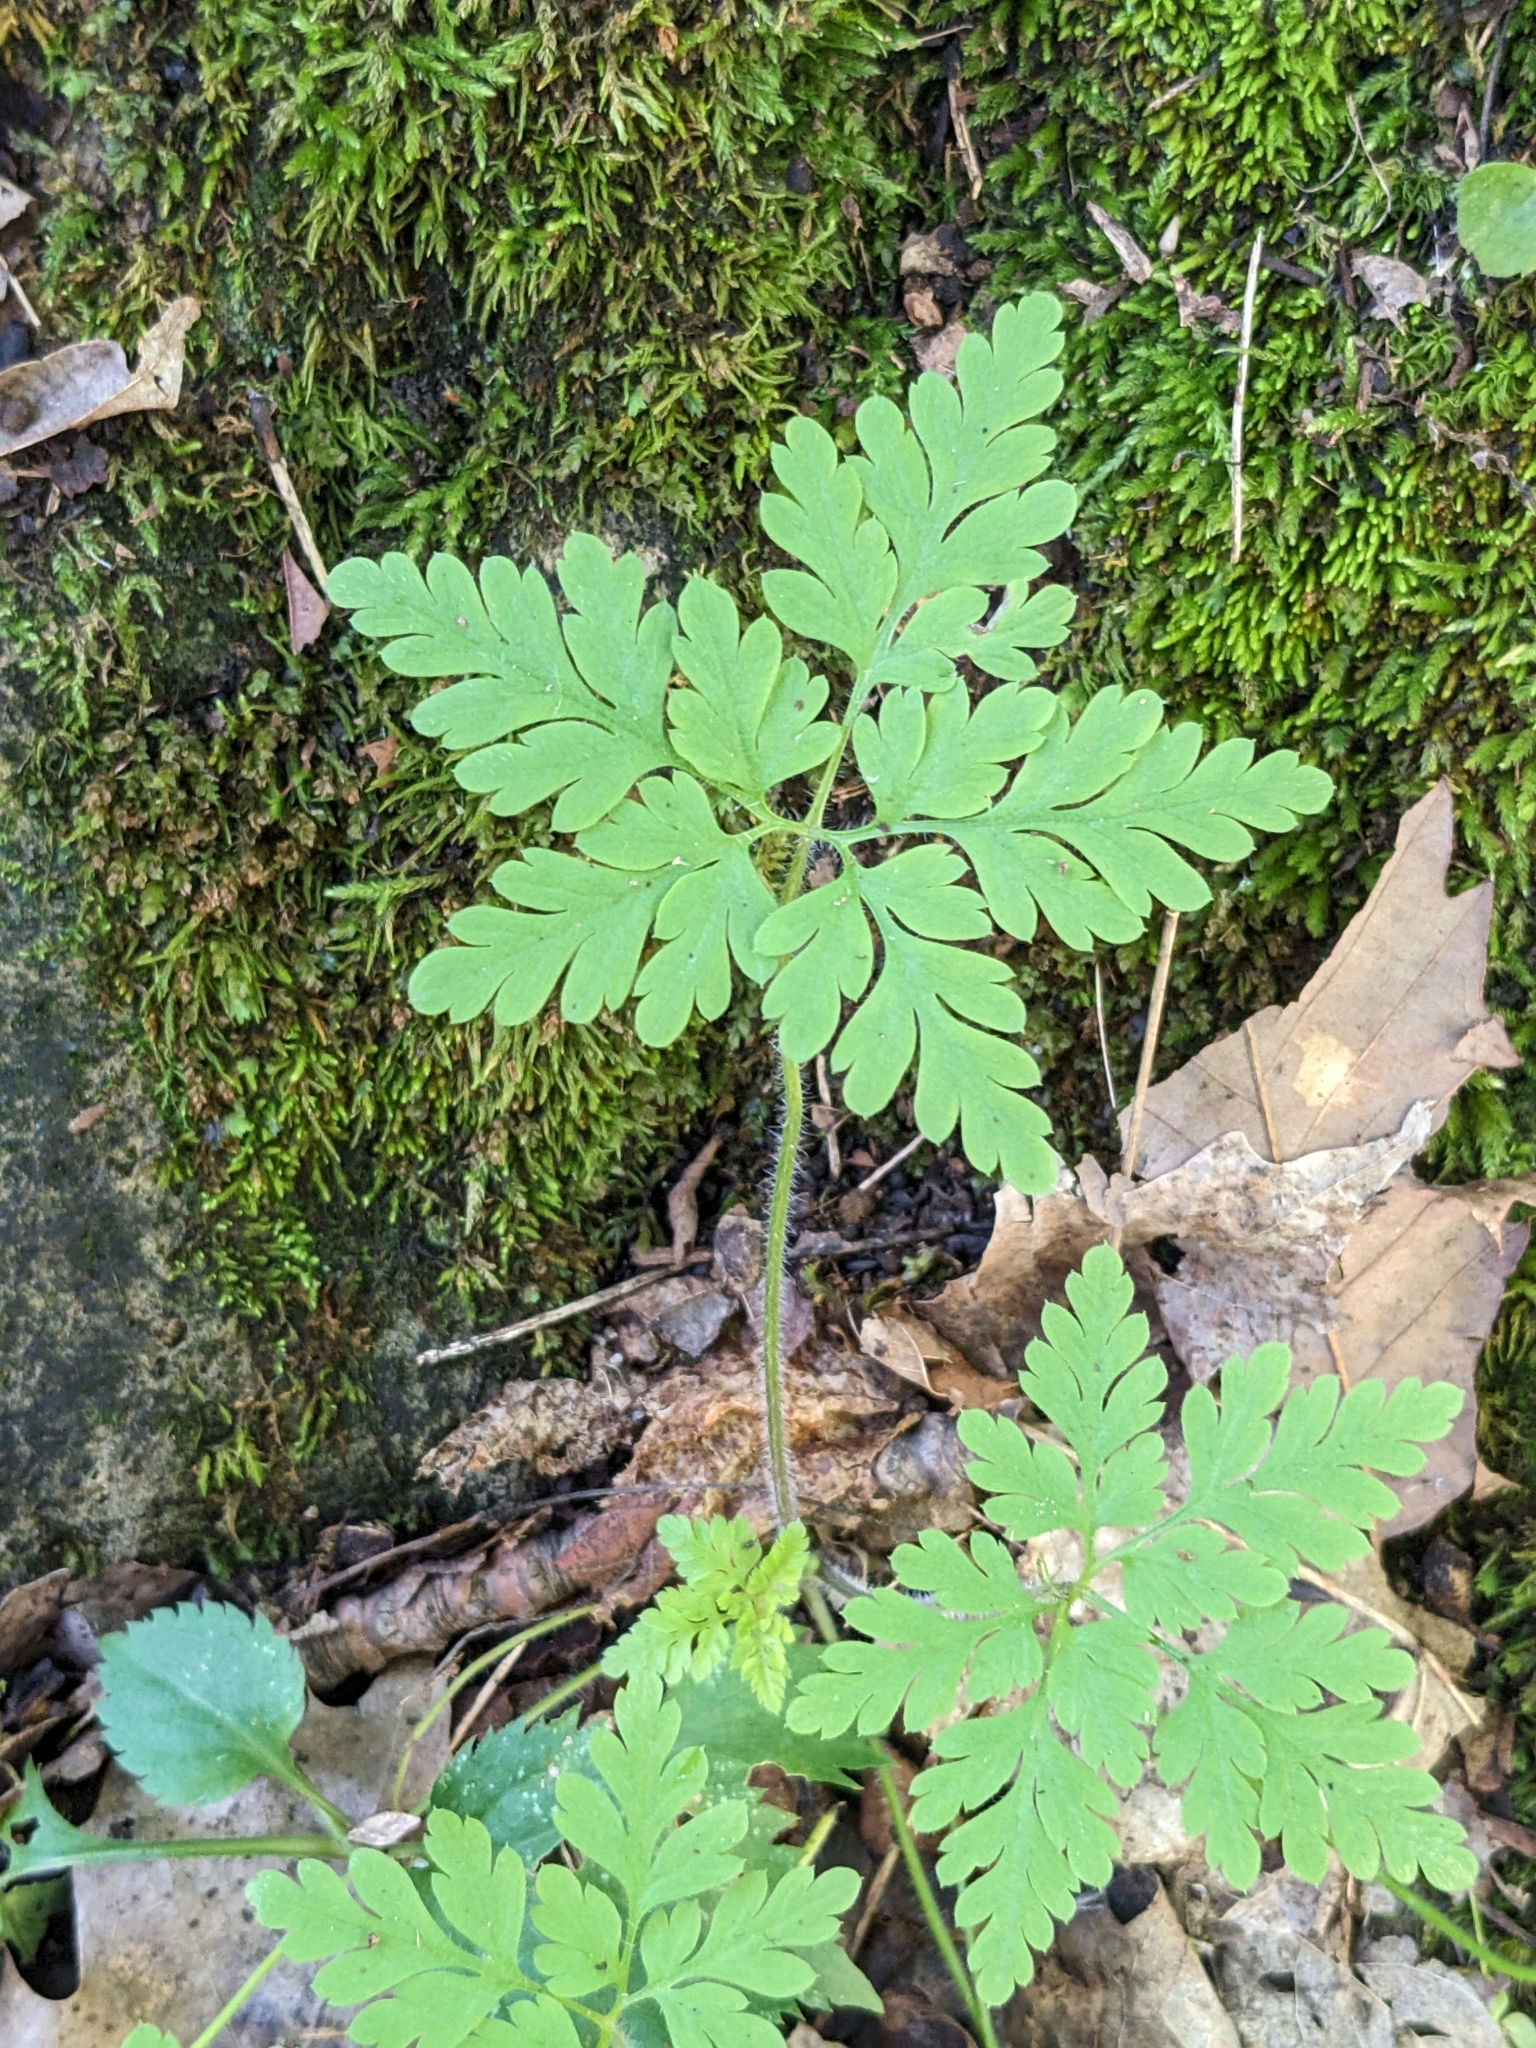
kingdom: Plantae
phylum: Tracheophyta
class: Magnoliopsida
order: Geraniales
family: Geraniaceae
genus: Geranium
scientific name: Geranium robertianum
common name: Herb-robert
